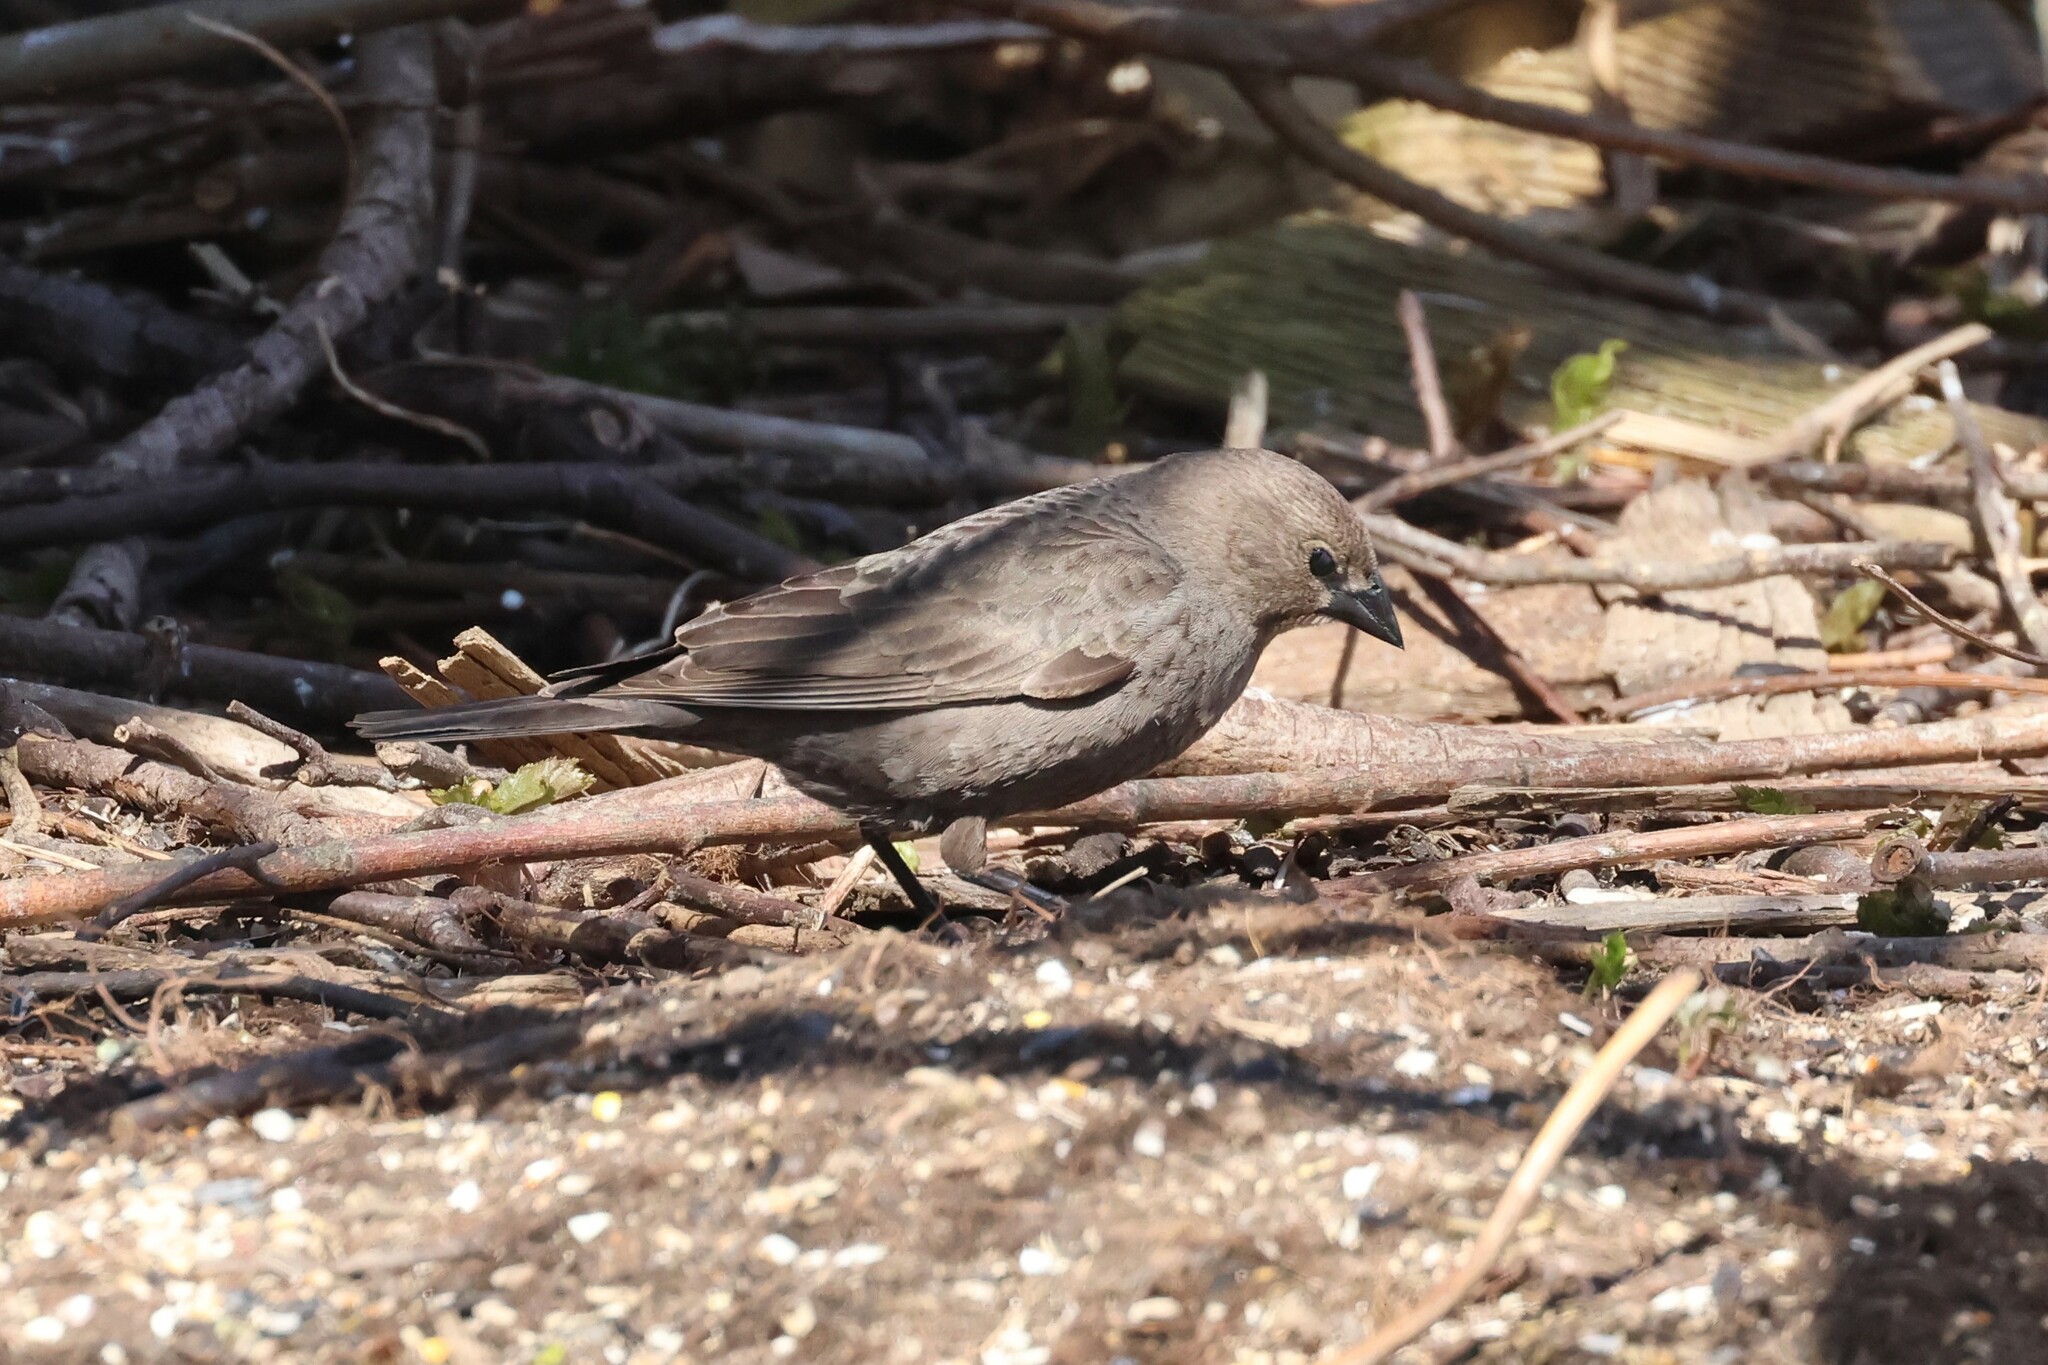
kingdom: Animalia
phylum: Chordata
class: Aves
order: Passeriformes
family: Icteridae
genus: Molothrus
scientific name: Molothrus ater
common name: Brown-headed cowbird
